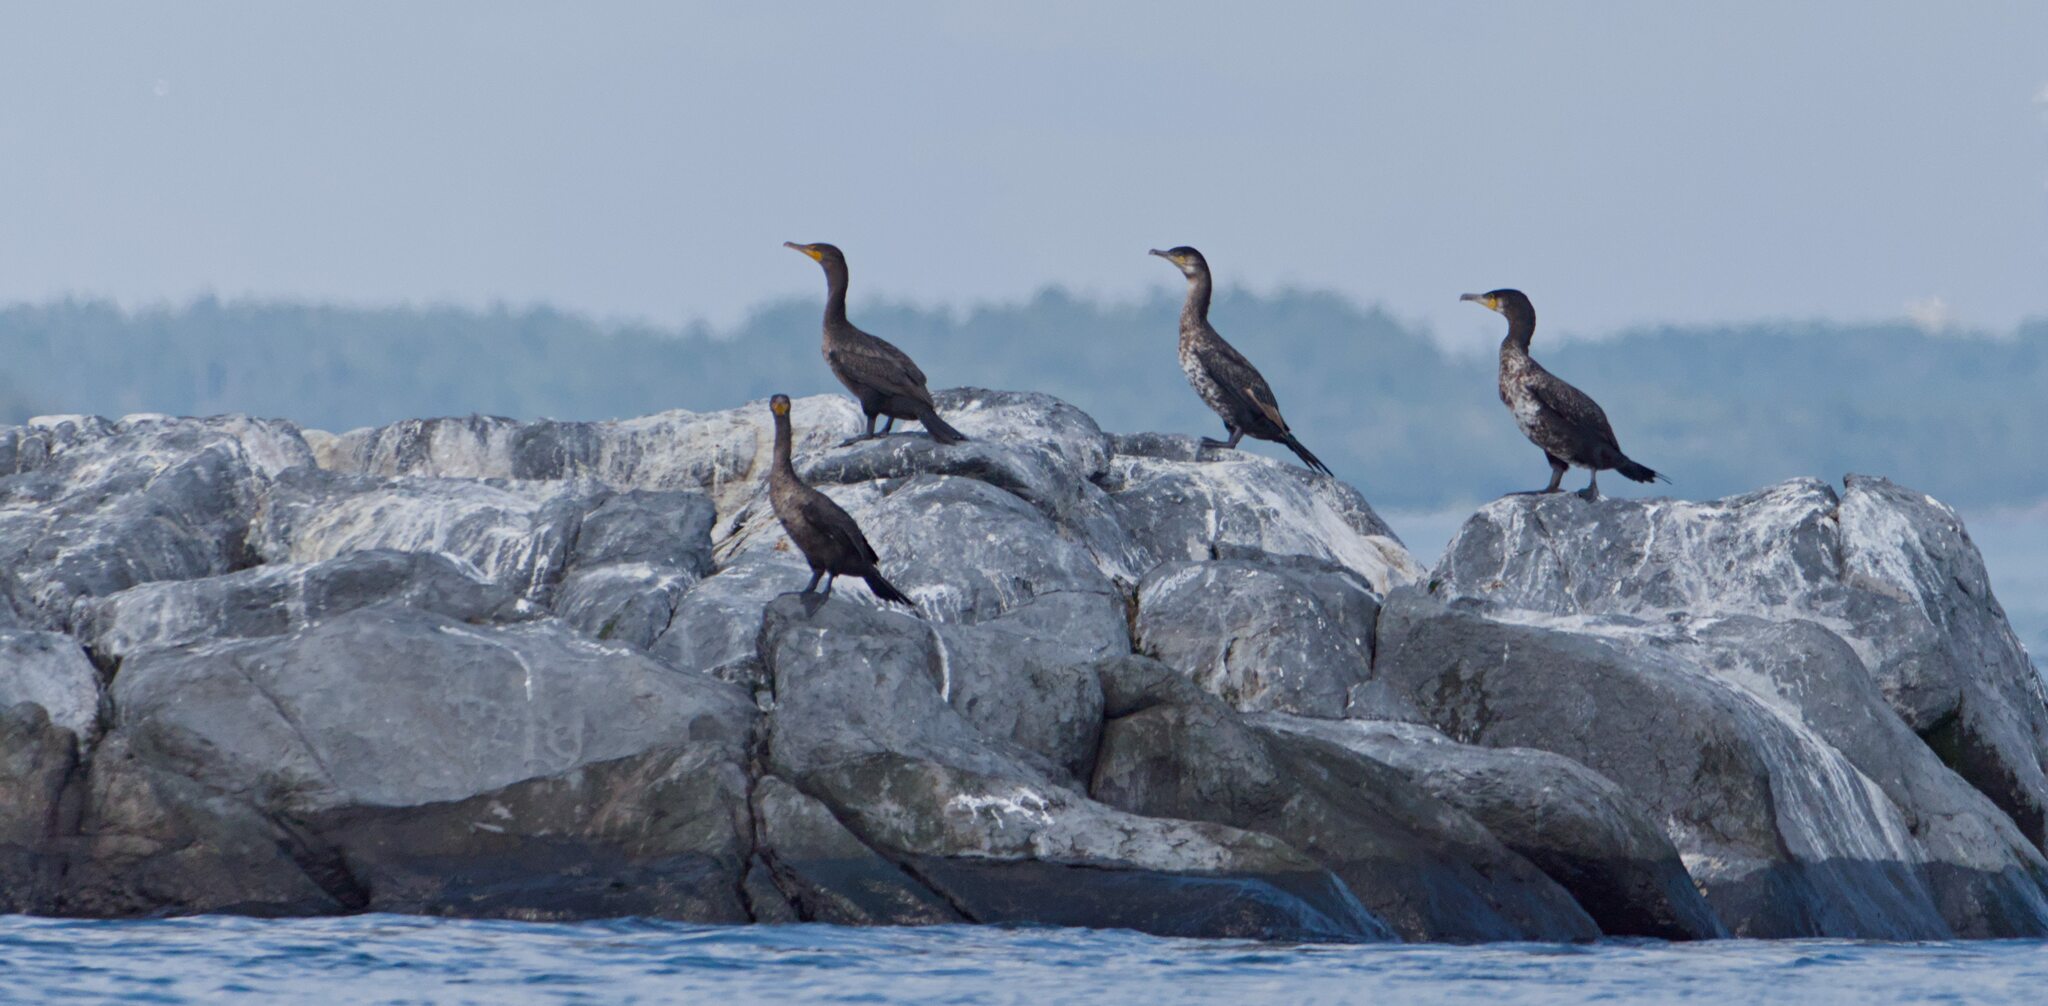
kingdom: Animalia
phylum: Chordata
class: Aves
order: Suliformes
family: Phalacrocoracidae
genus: Phalacrocorax
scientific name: Phalacrocorax carbo
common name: Great cormorant
